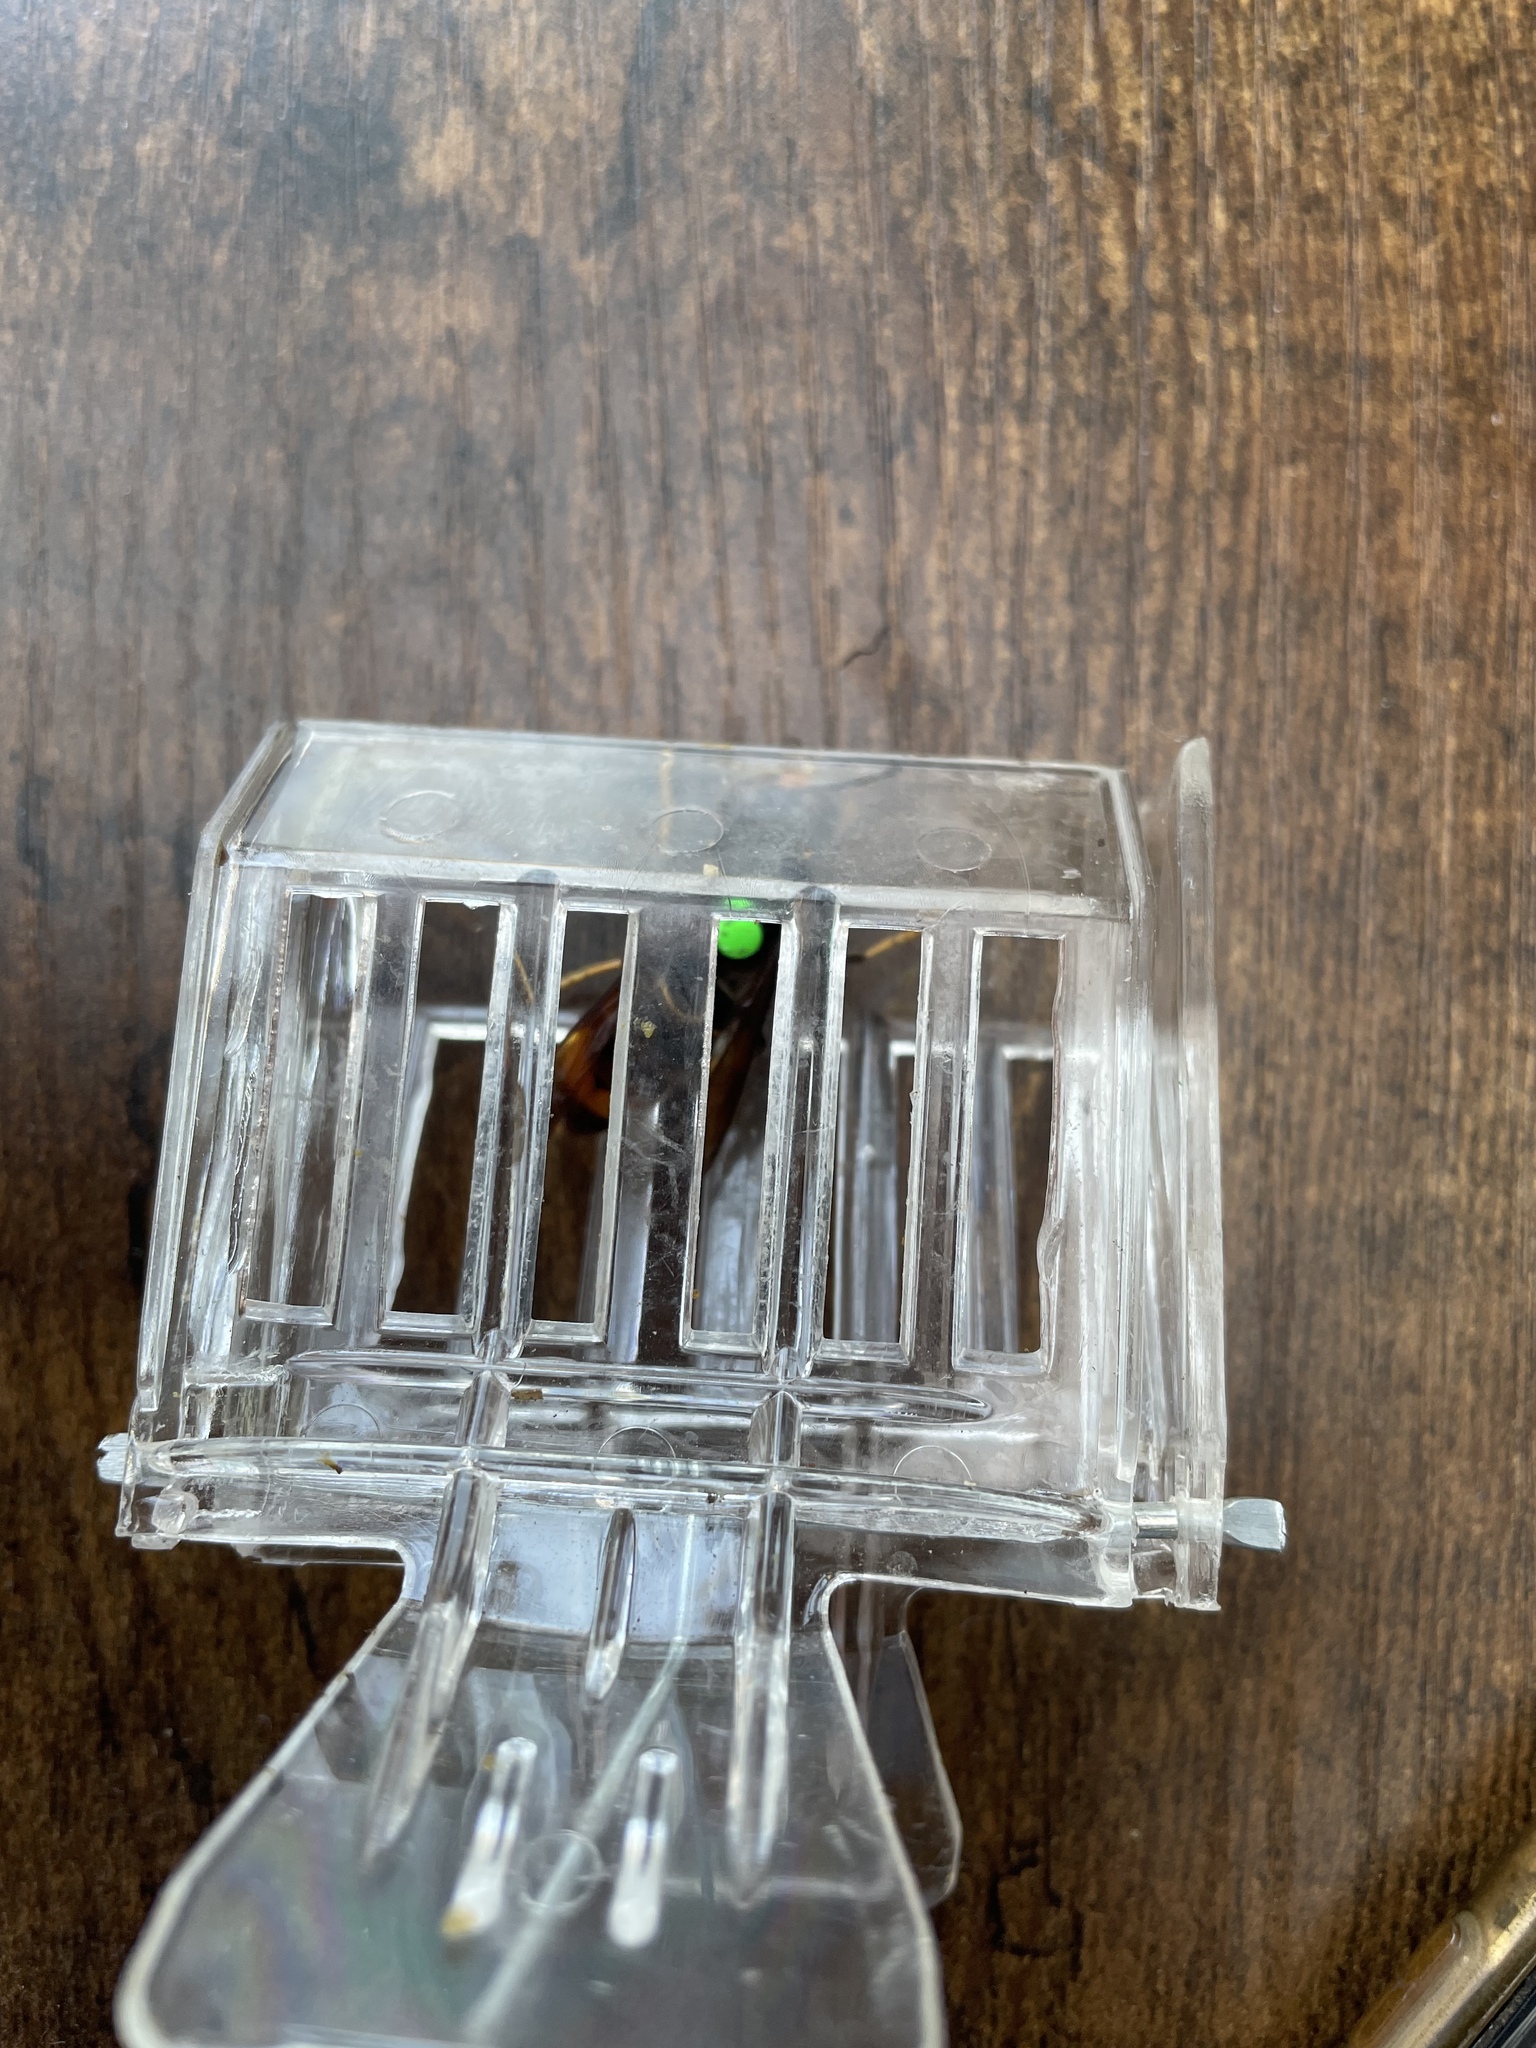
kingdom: Animalia
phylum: Arthropoda
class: Insecta
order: Hymenoptera
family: Vespidae
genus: Vespa
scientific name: Vespa velutina
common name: Asian hornet
